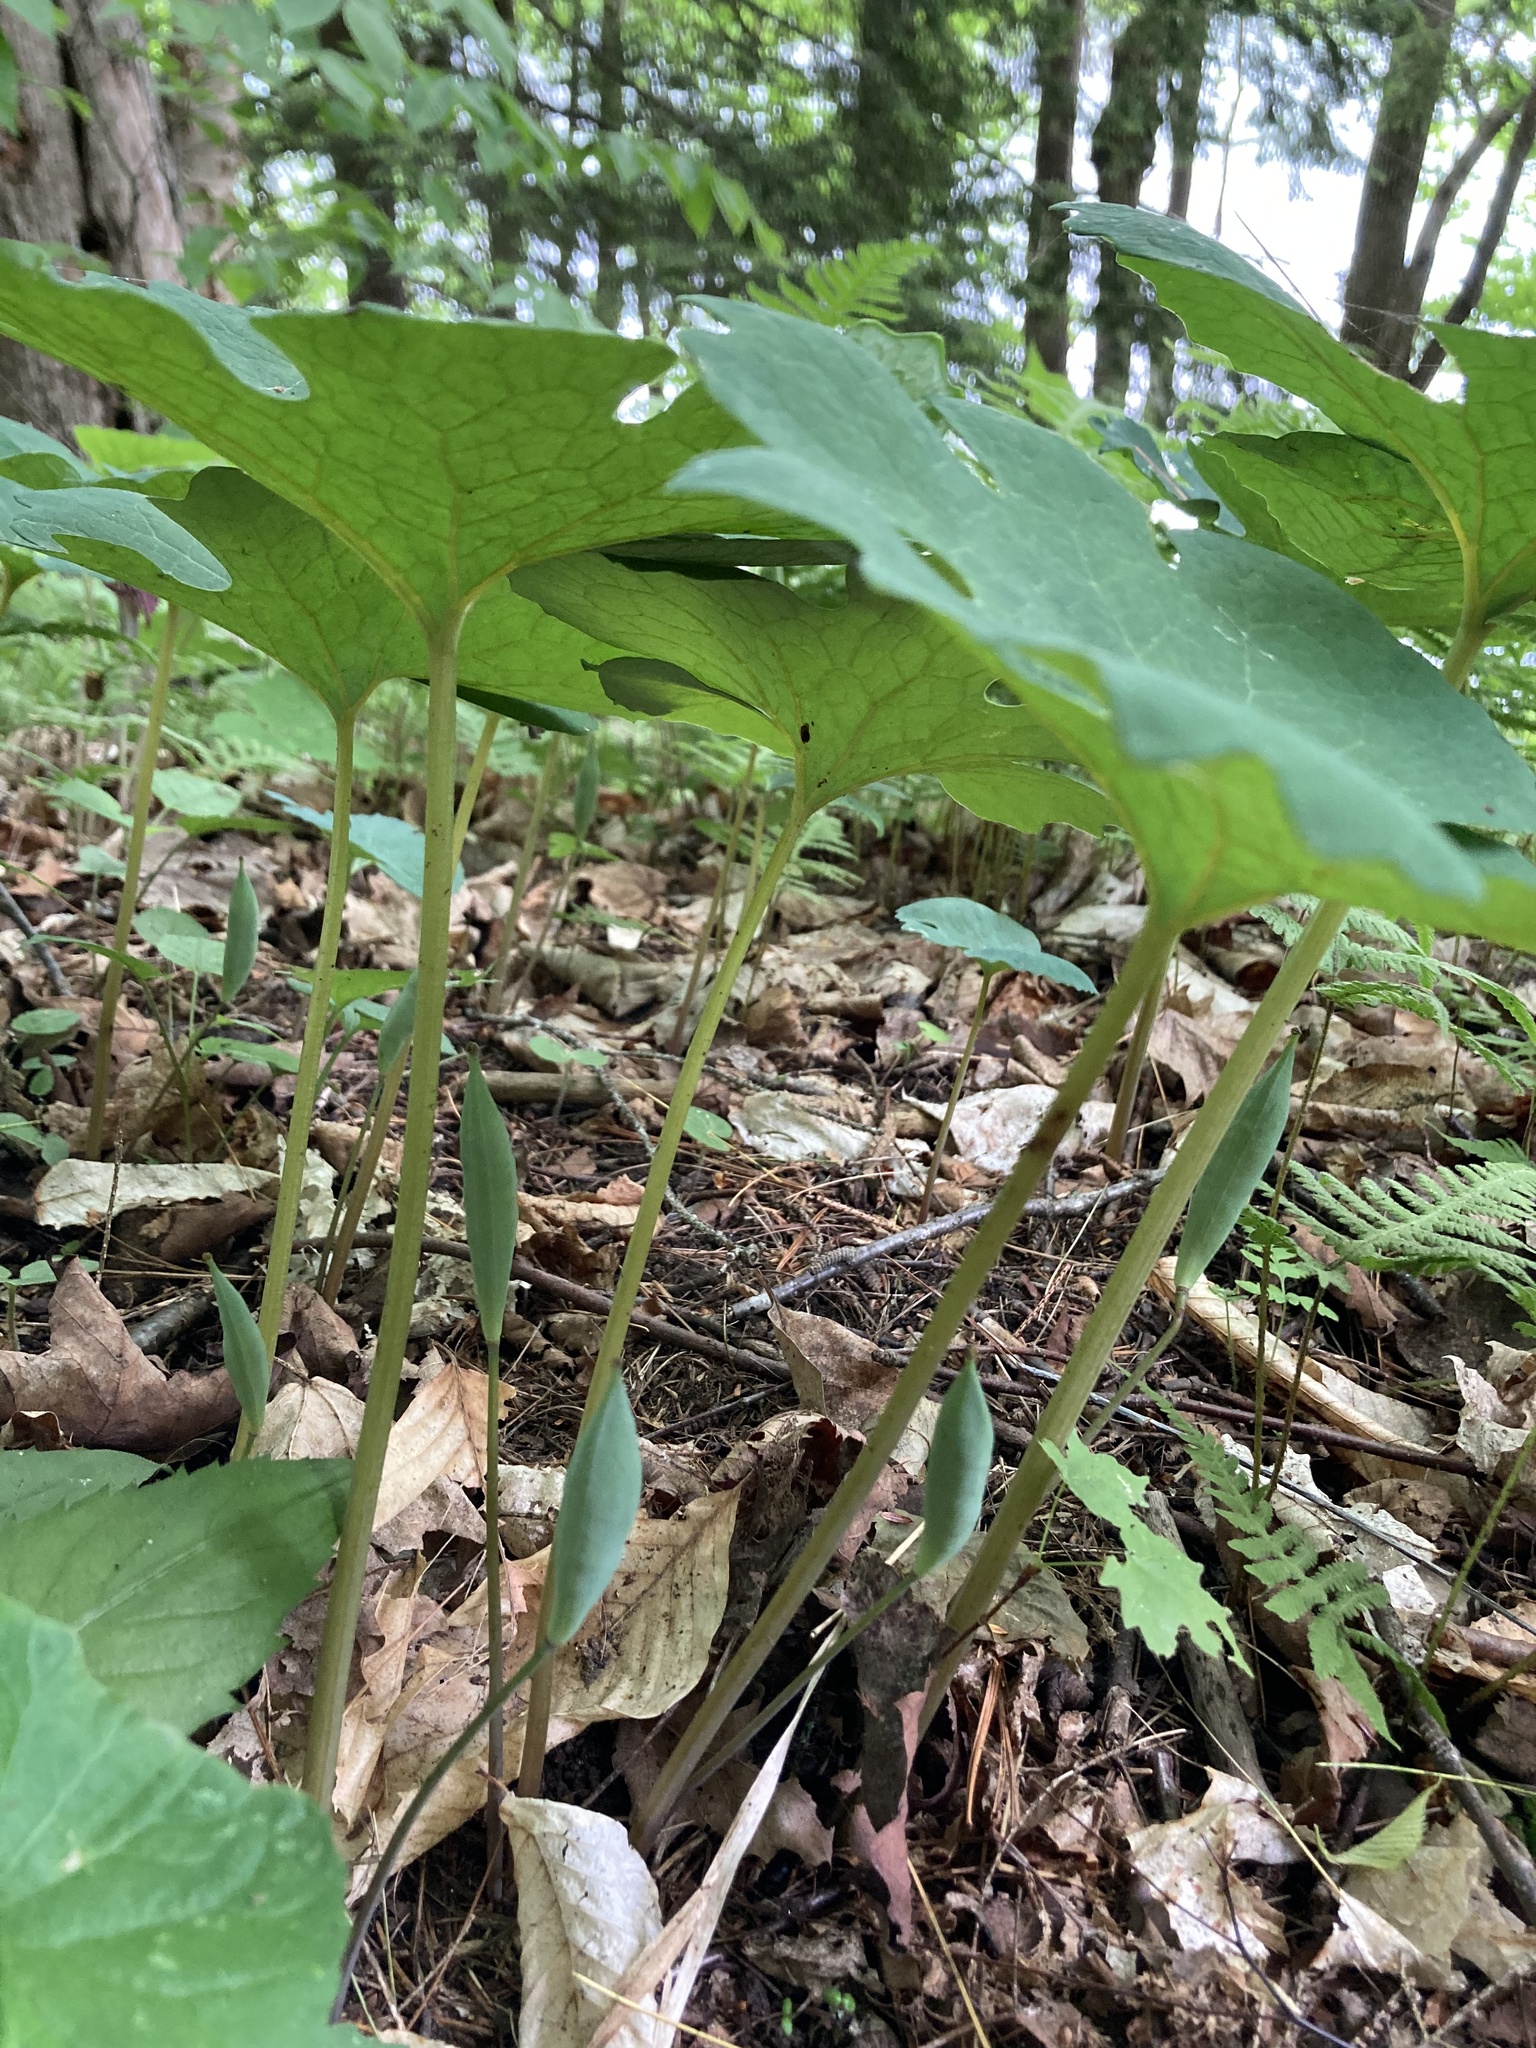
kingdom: Plantae
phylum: Tracheophyta
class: Magnoliopsida
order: Ranunculales
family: Papaveraceae
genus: Sanguinaria
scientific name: Sanguinaria canadensis
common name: Bloodroot
